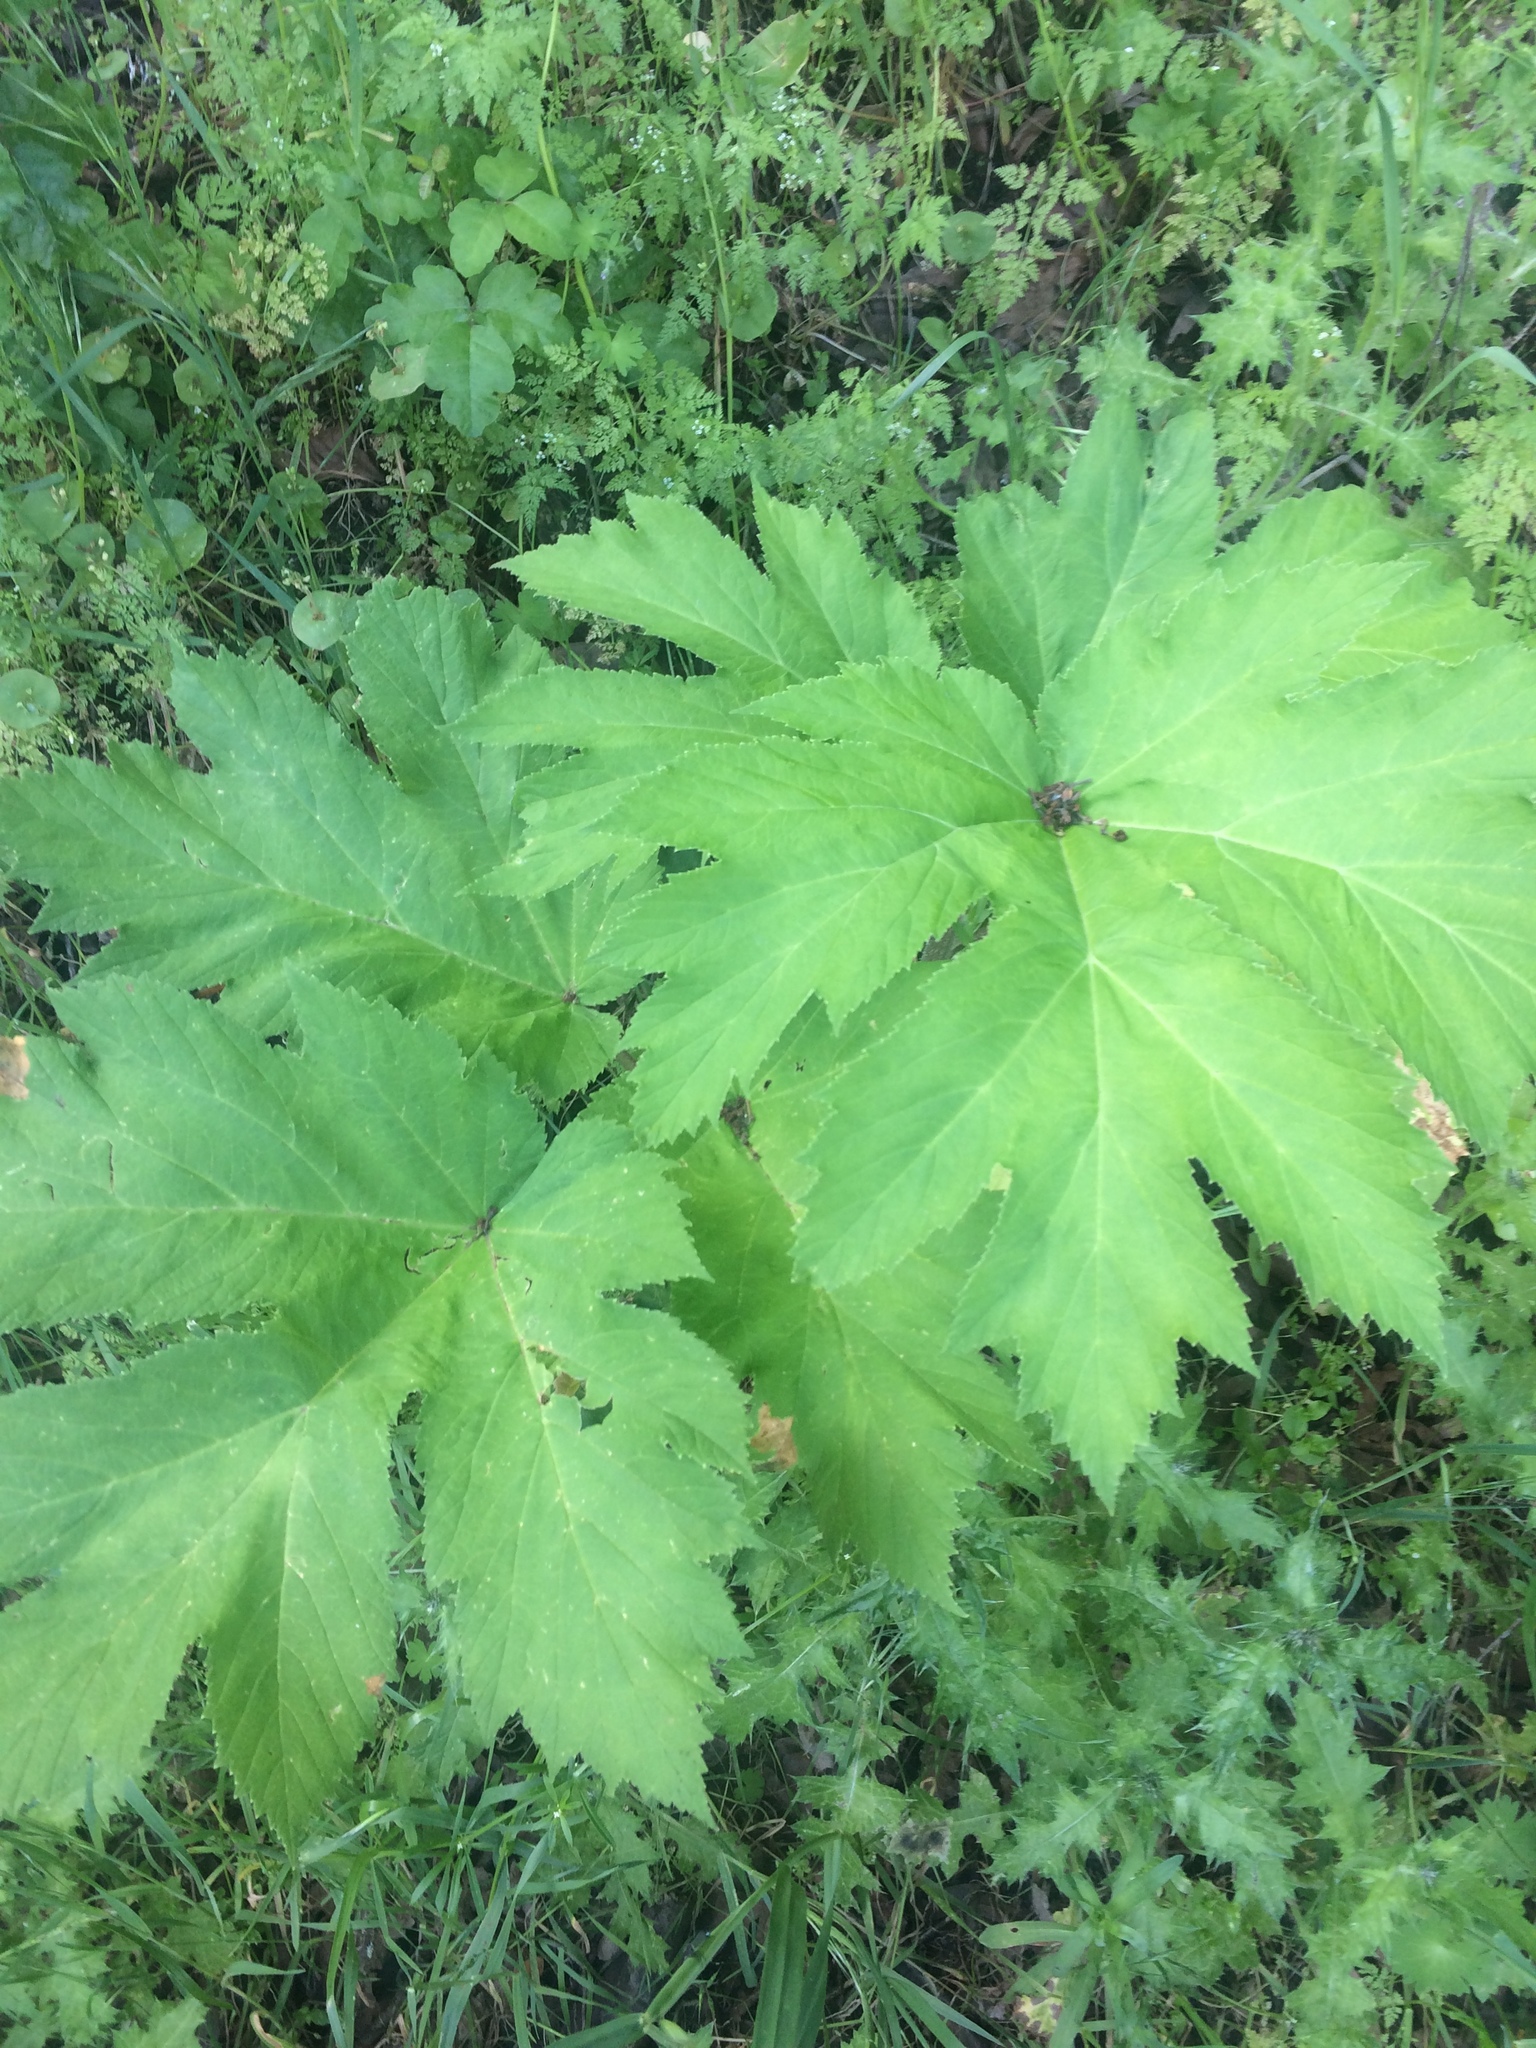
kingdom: Plantae
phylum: Tracheophyta
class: Magnoliopsida
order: Apiales
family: Apiaceae
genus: Heracleum
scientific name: Heracleum maximum
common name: American cow parsnip
